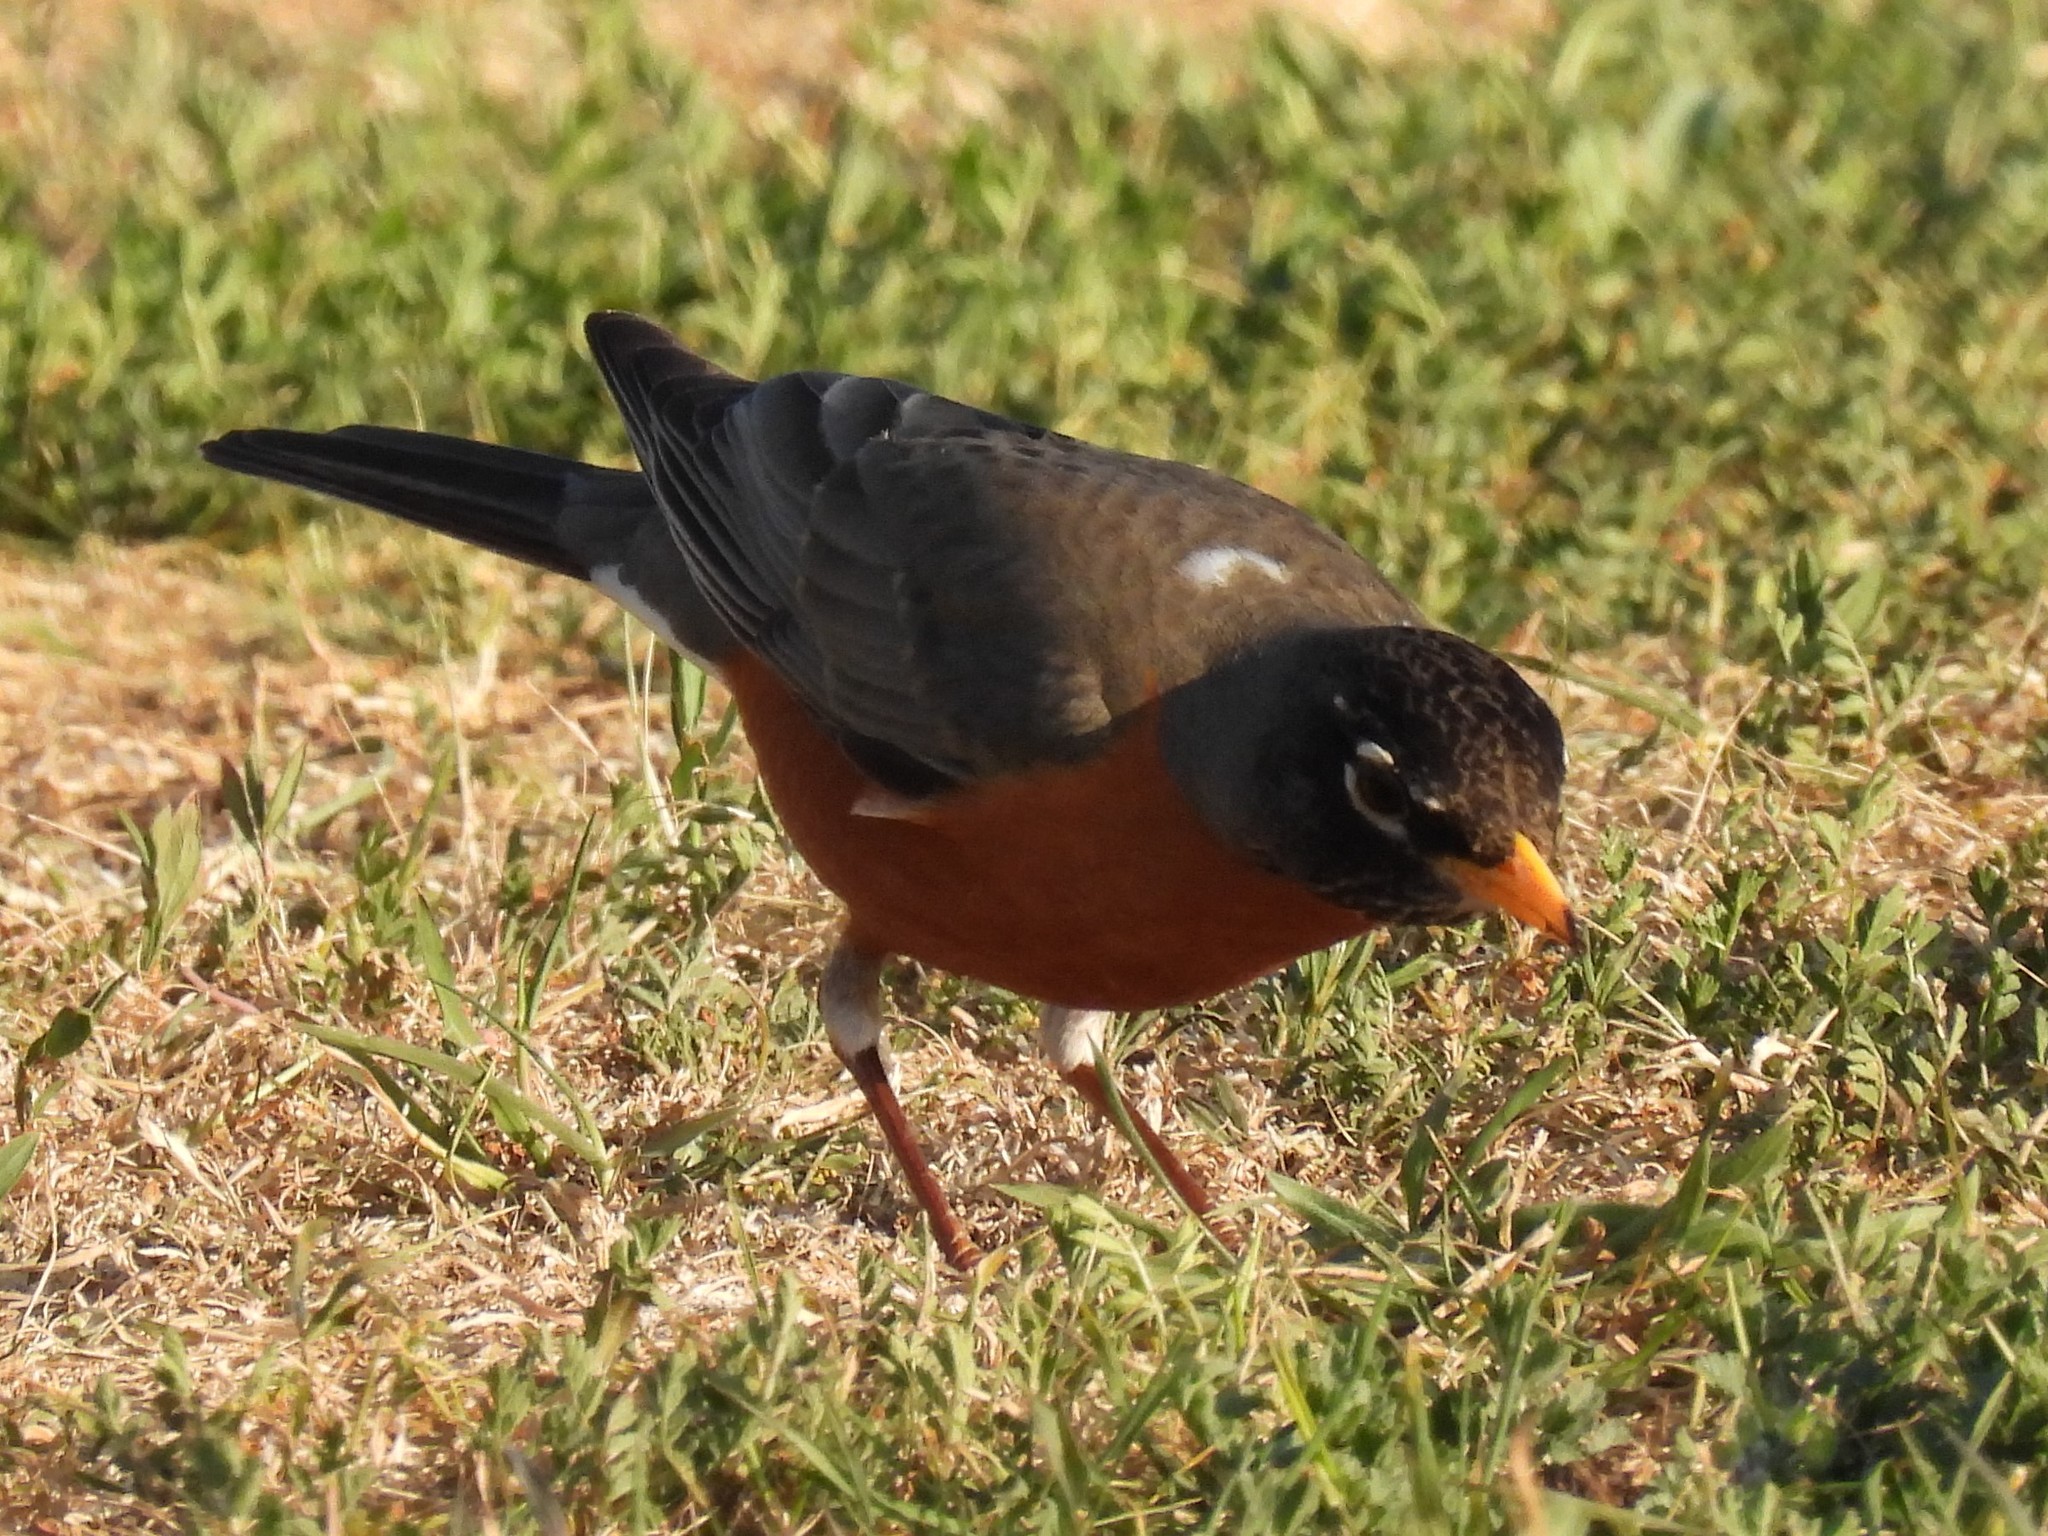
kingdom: Animalia
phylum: Chordata
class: Aves
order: Passeriformes
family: Turdidae
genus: Turdus
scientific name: Turdus migratorius
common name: American robin
